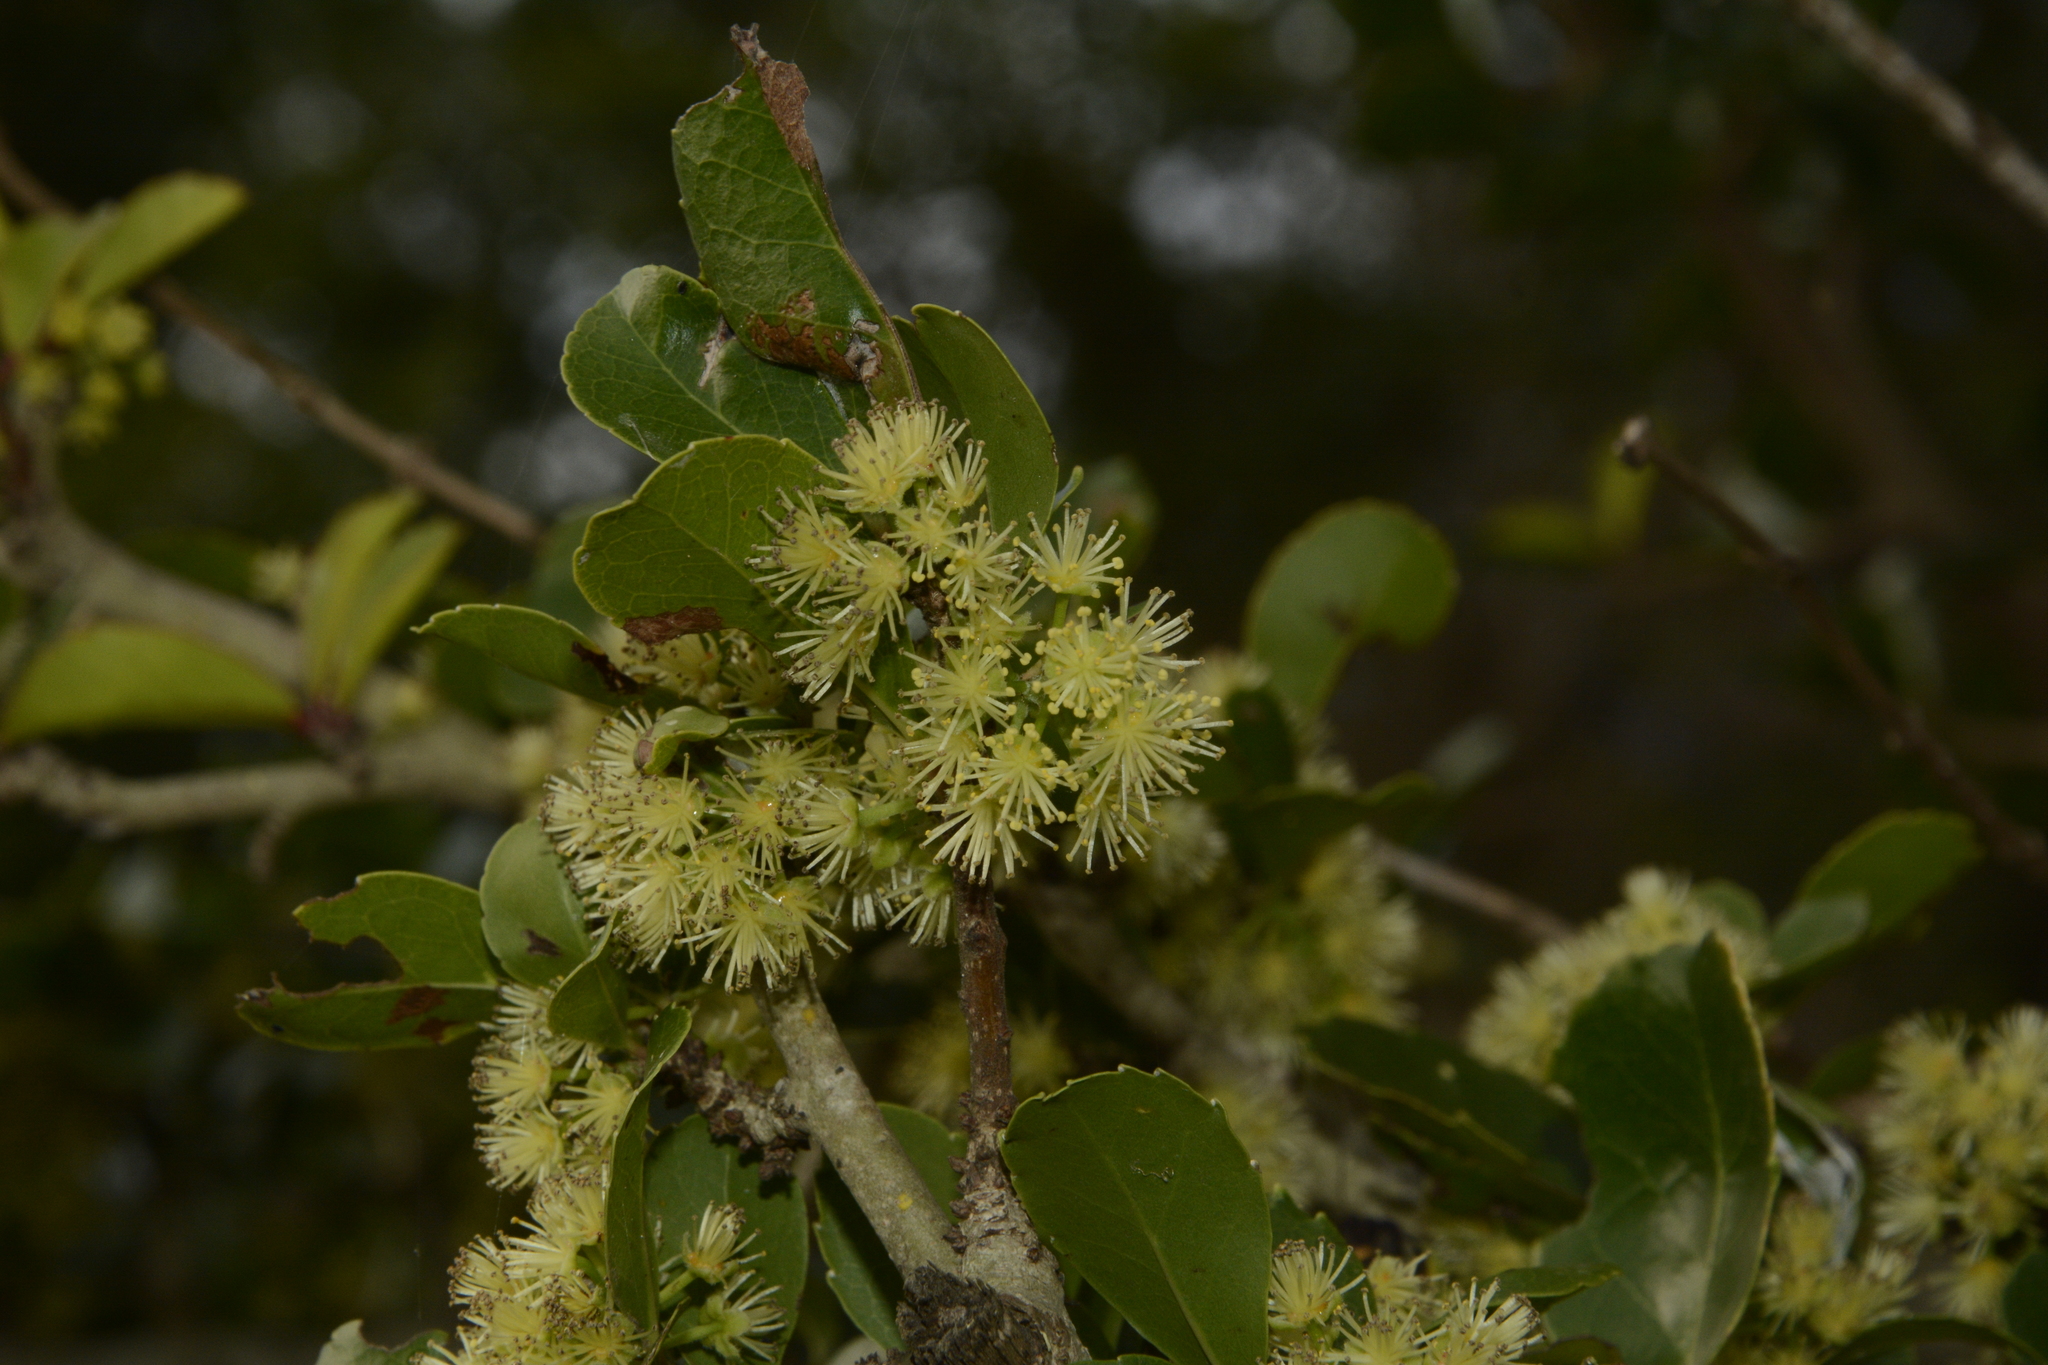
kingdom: Plantae
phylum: Tracheophyta
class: Magnoliopsida
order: Malpighiales
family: Salicaceae
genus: Flacourtia
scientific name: Flacourtia indica
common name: Governor's plum
